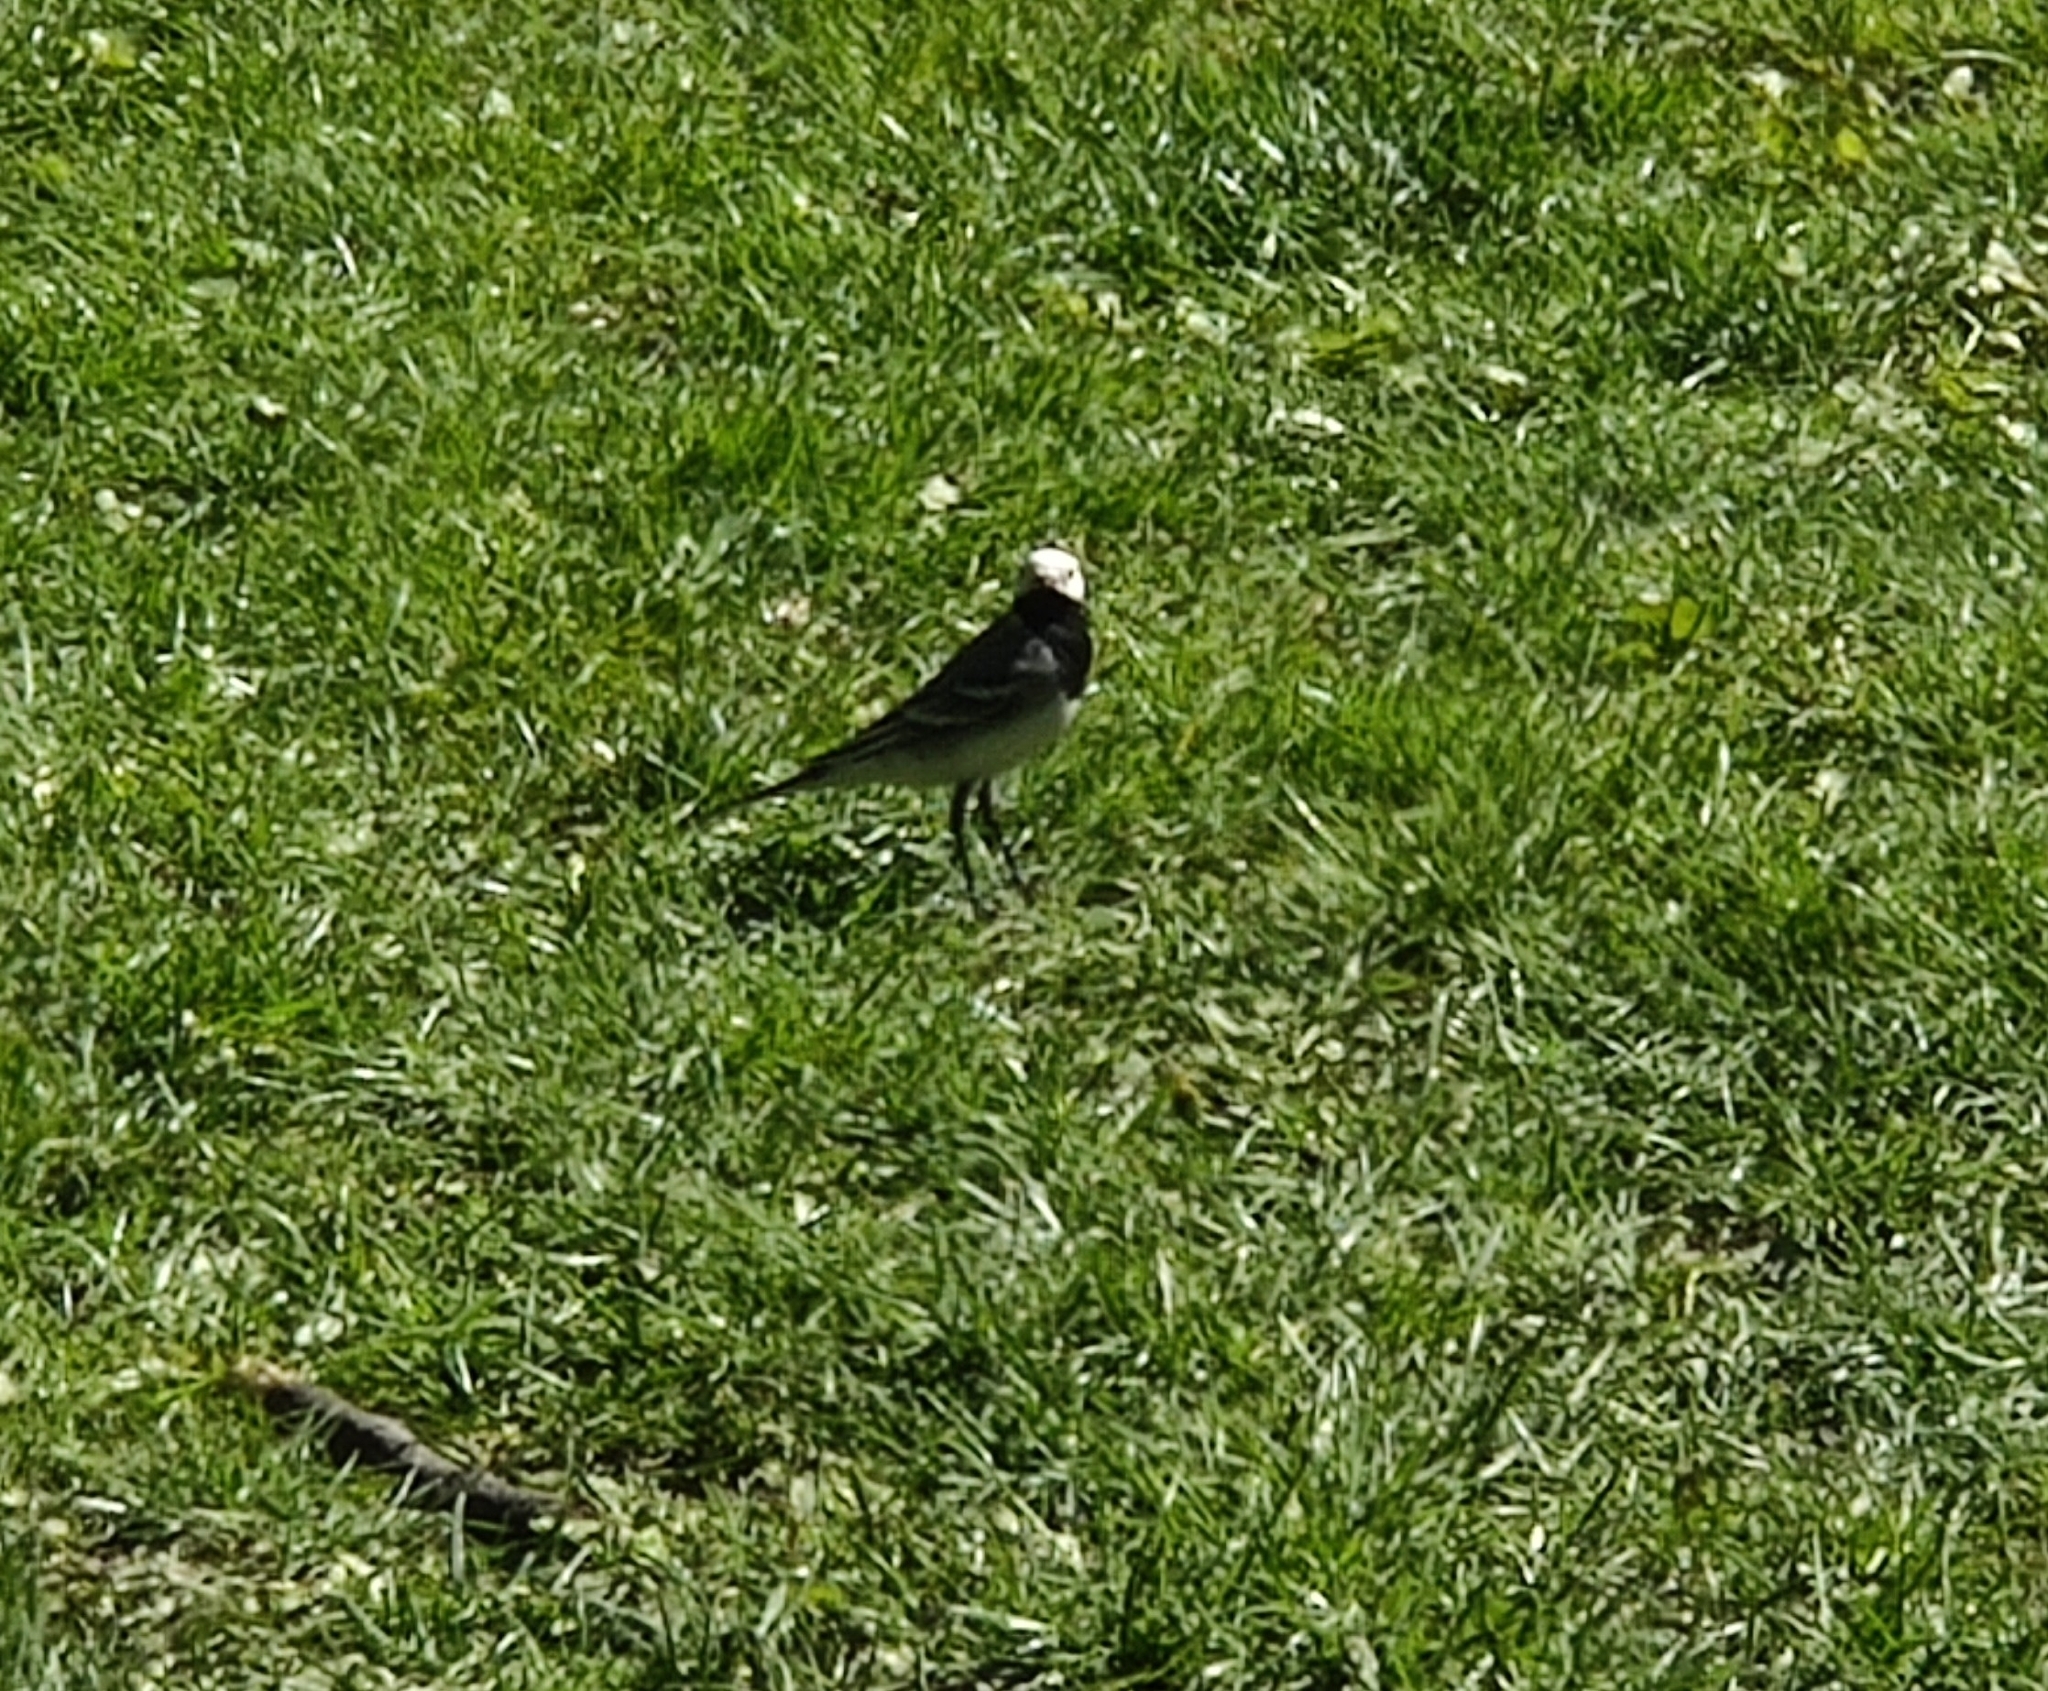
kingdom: Animalia
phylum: Chordata
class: Aves
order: Passeriformes
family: Motacillidae
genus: Motacilla
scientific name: Motacilla alba
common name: White wagtail
